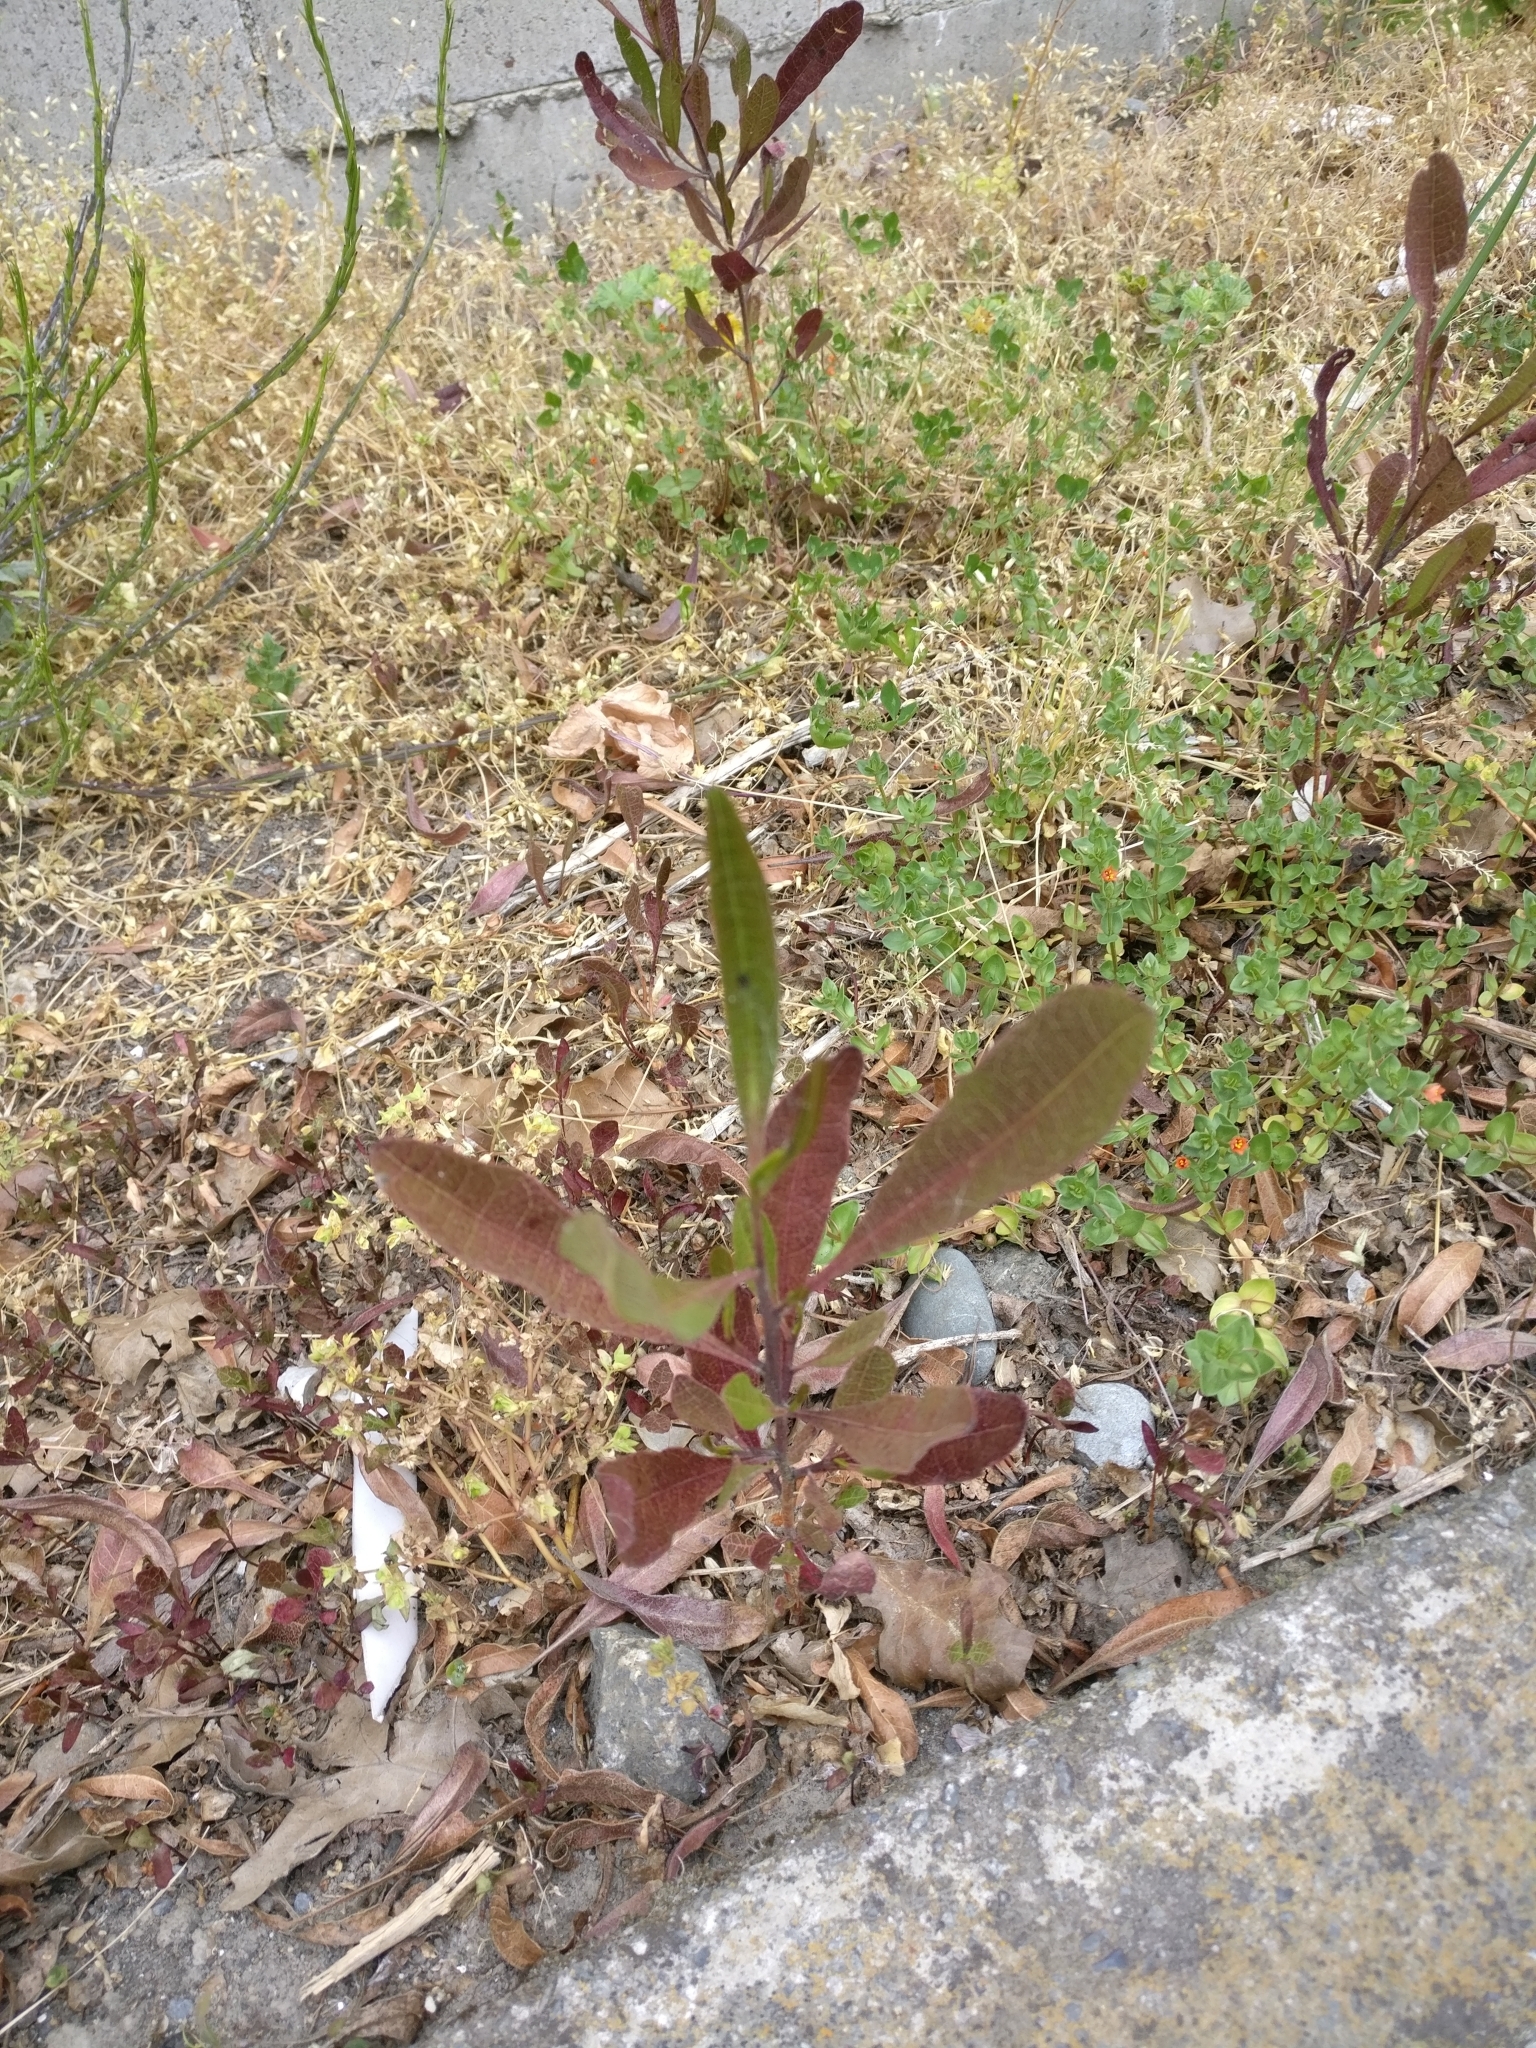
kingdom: Plantae
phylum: Tracheophyta
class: Magnoliopsida
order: Sapindales
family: Sapindaceae
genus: Dodonaea
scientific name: Dodonaea viscosa
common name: Hopbush
